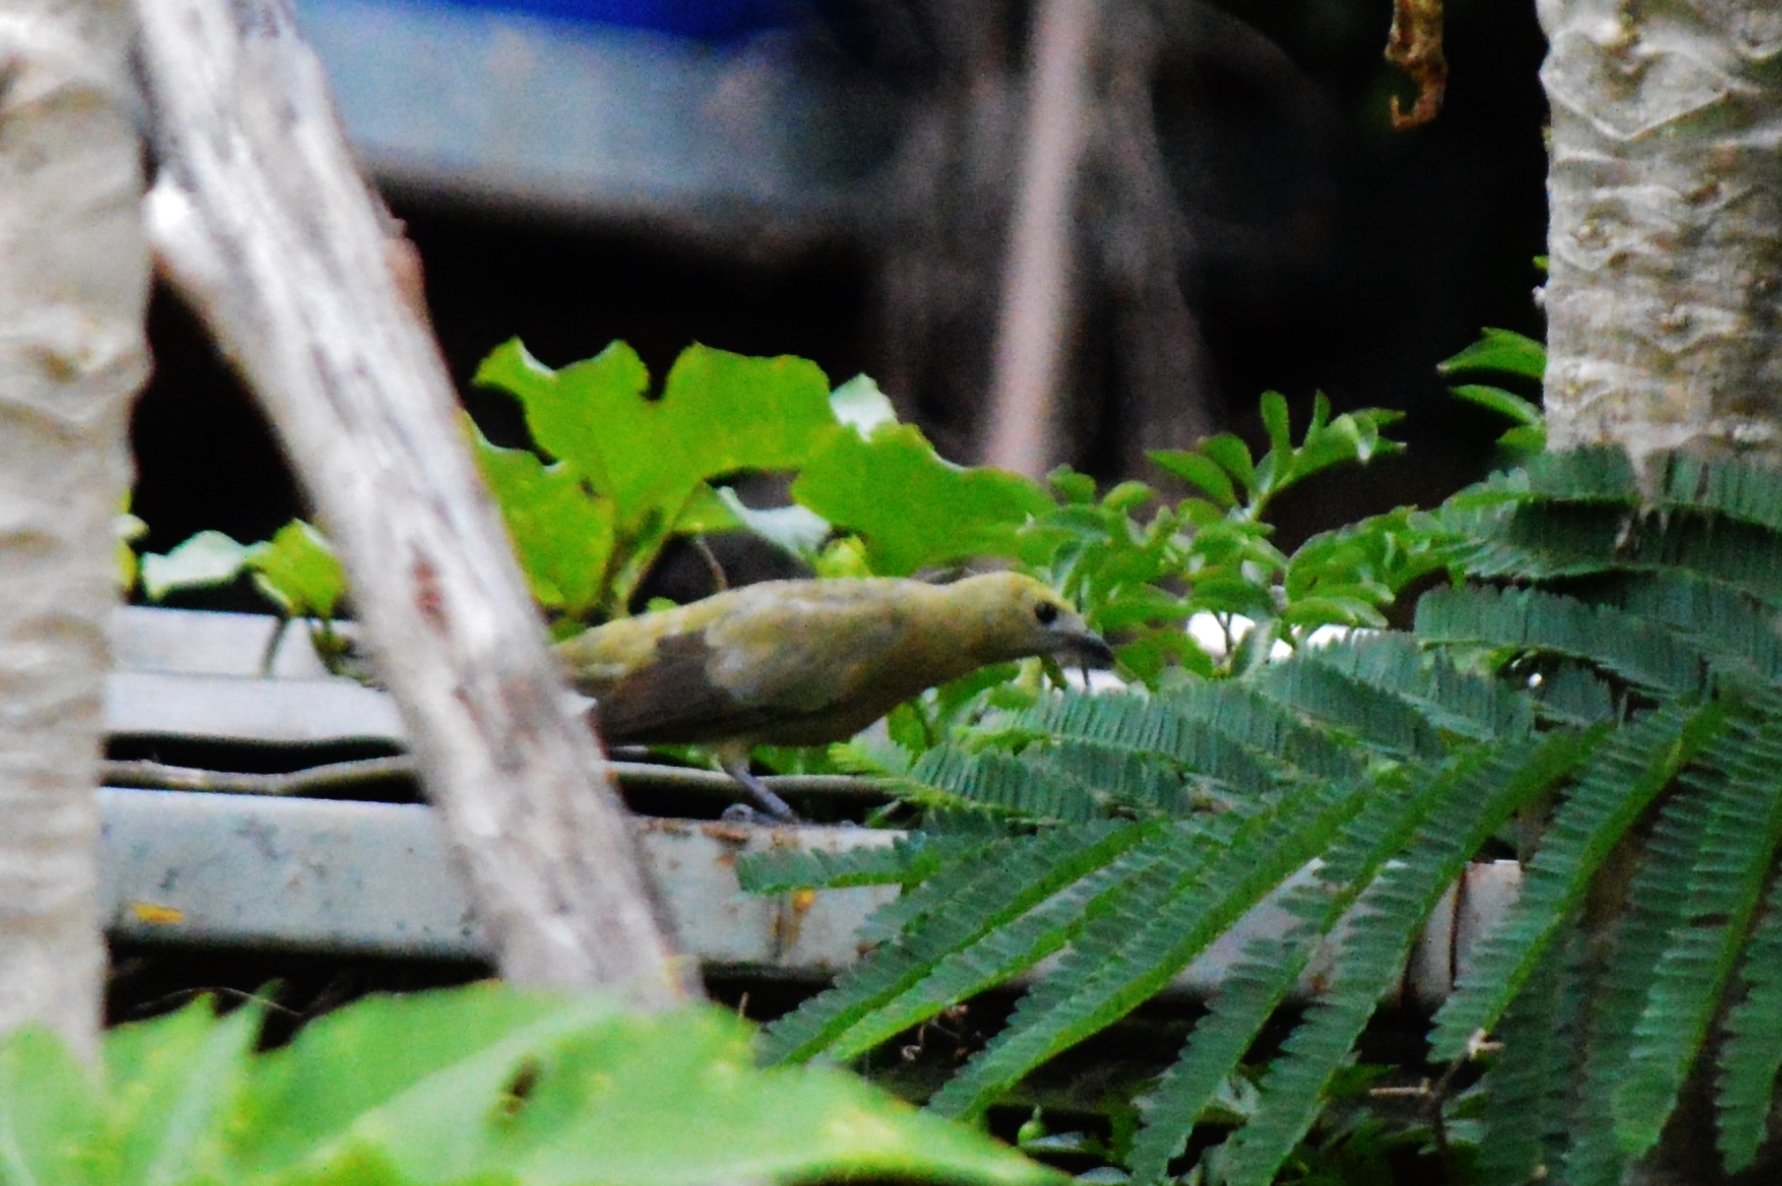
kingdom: Animalia
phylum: Chordata
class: Aves
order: Passeriformes
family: Thraupidae
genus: Thraupis
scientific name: Thraupis palmarum
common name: Palm tanager
